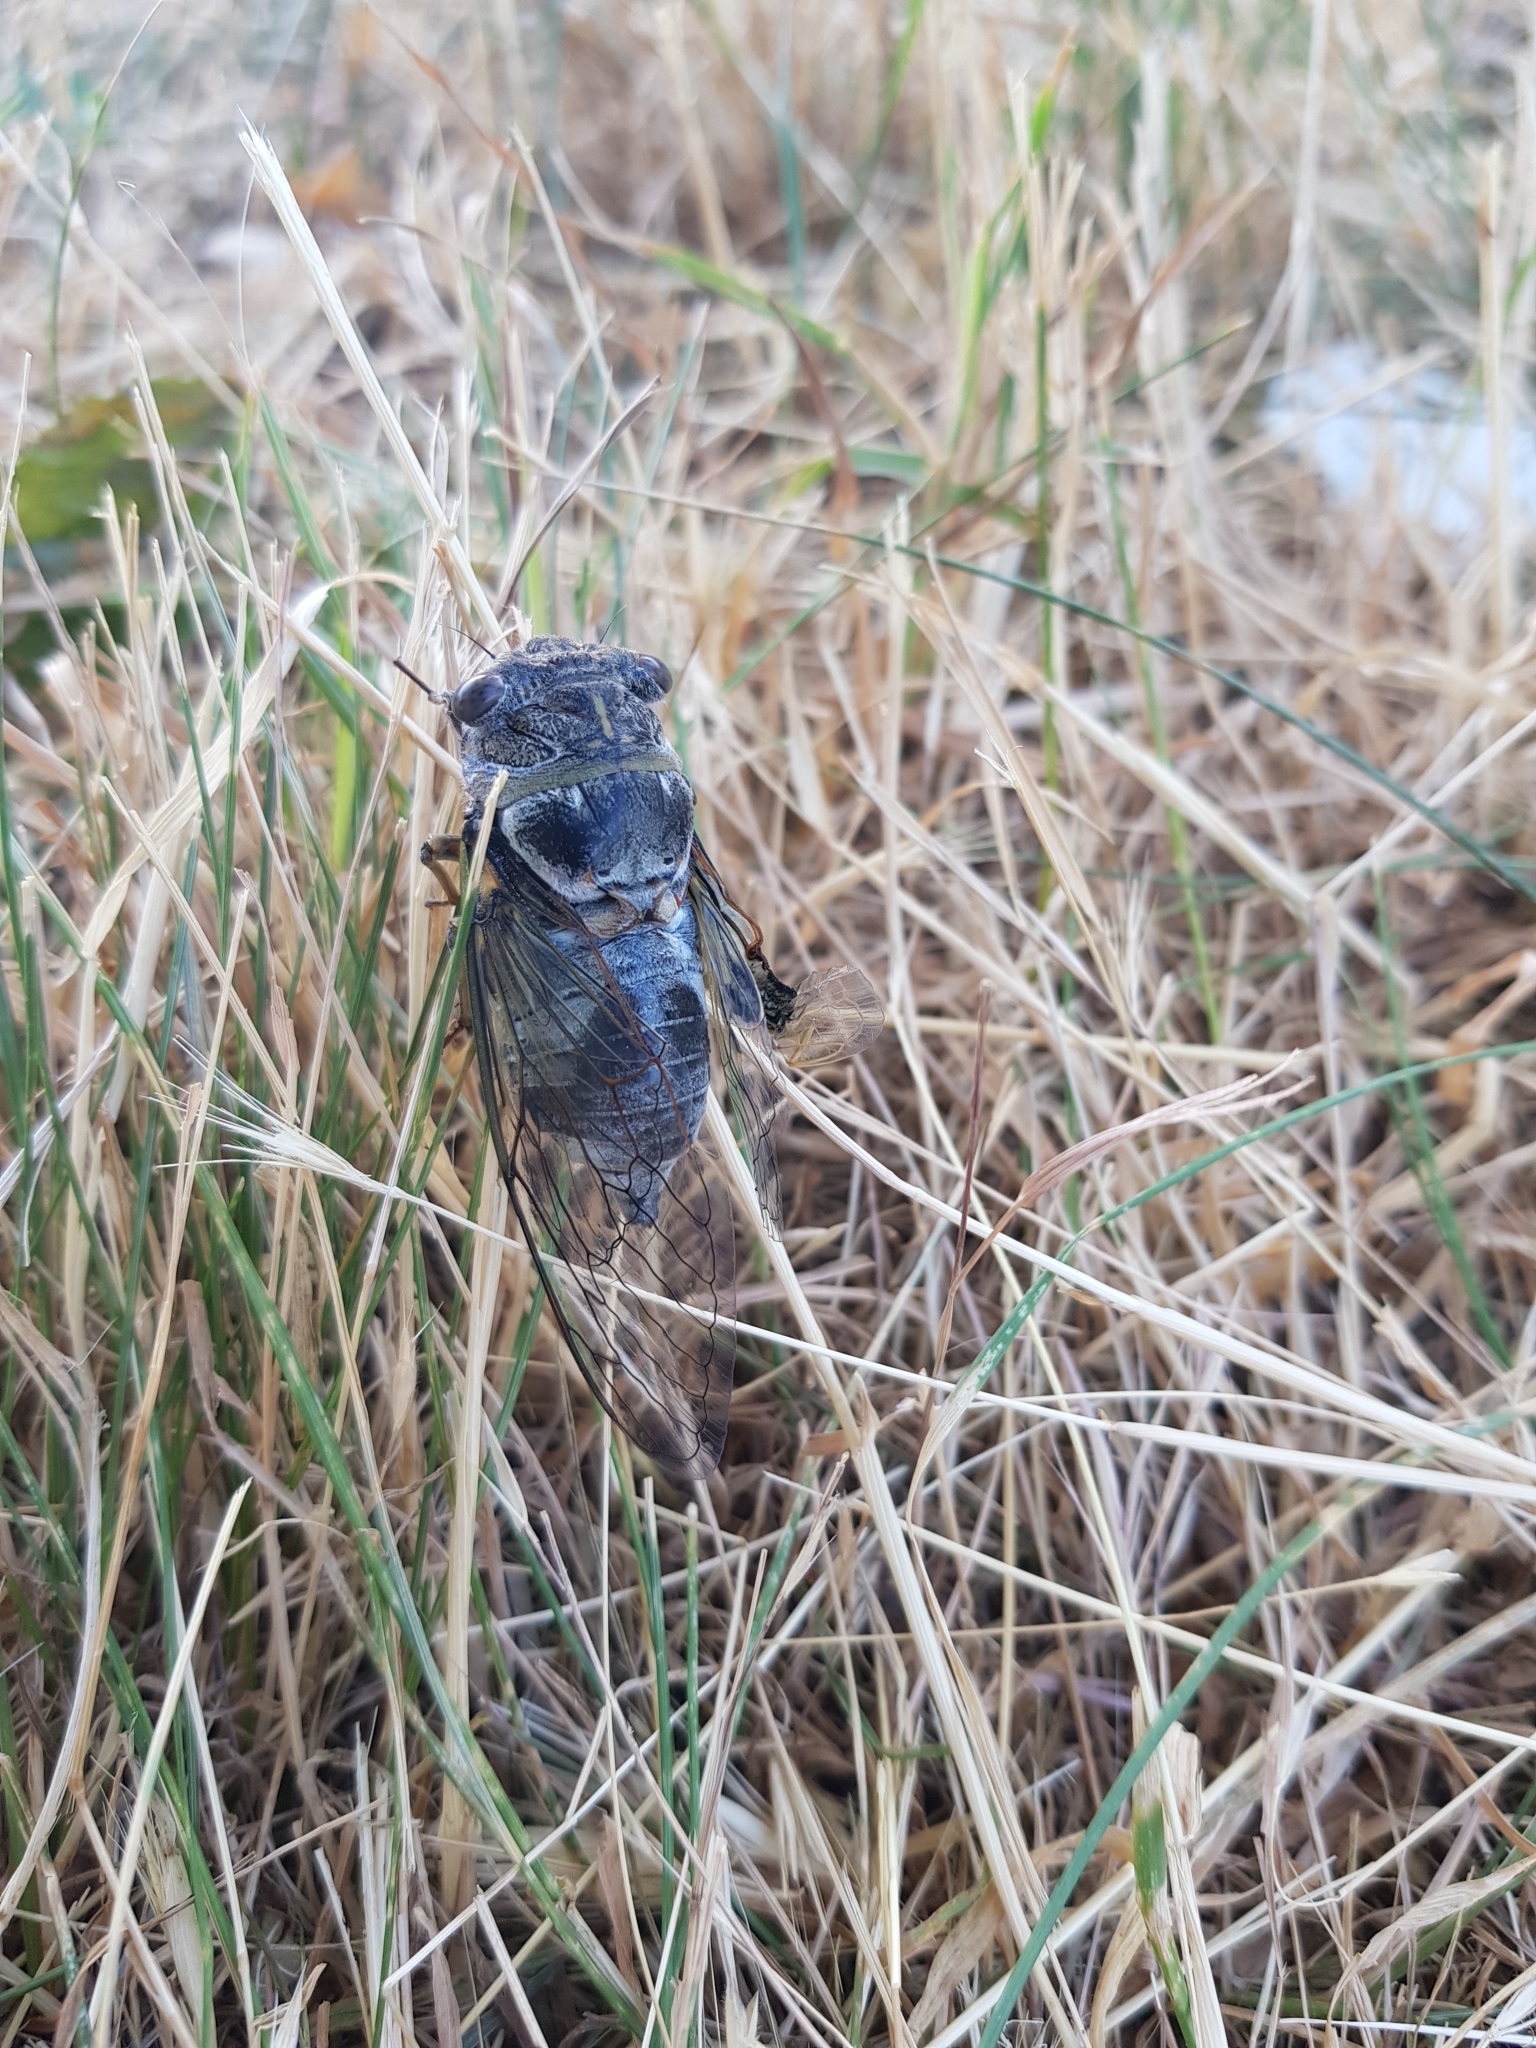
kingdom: Animalia
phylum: Arthropoda
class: Insecta
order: Hemiptera
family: Cicadidae
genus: Lyristes
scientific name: Lyristes plebejus
